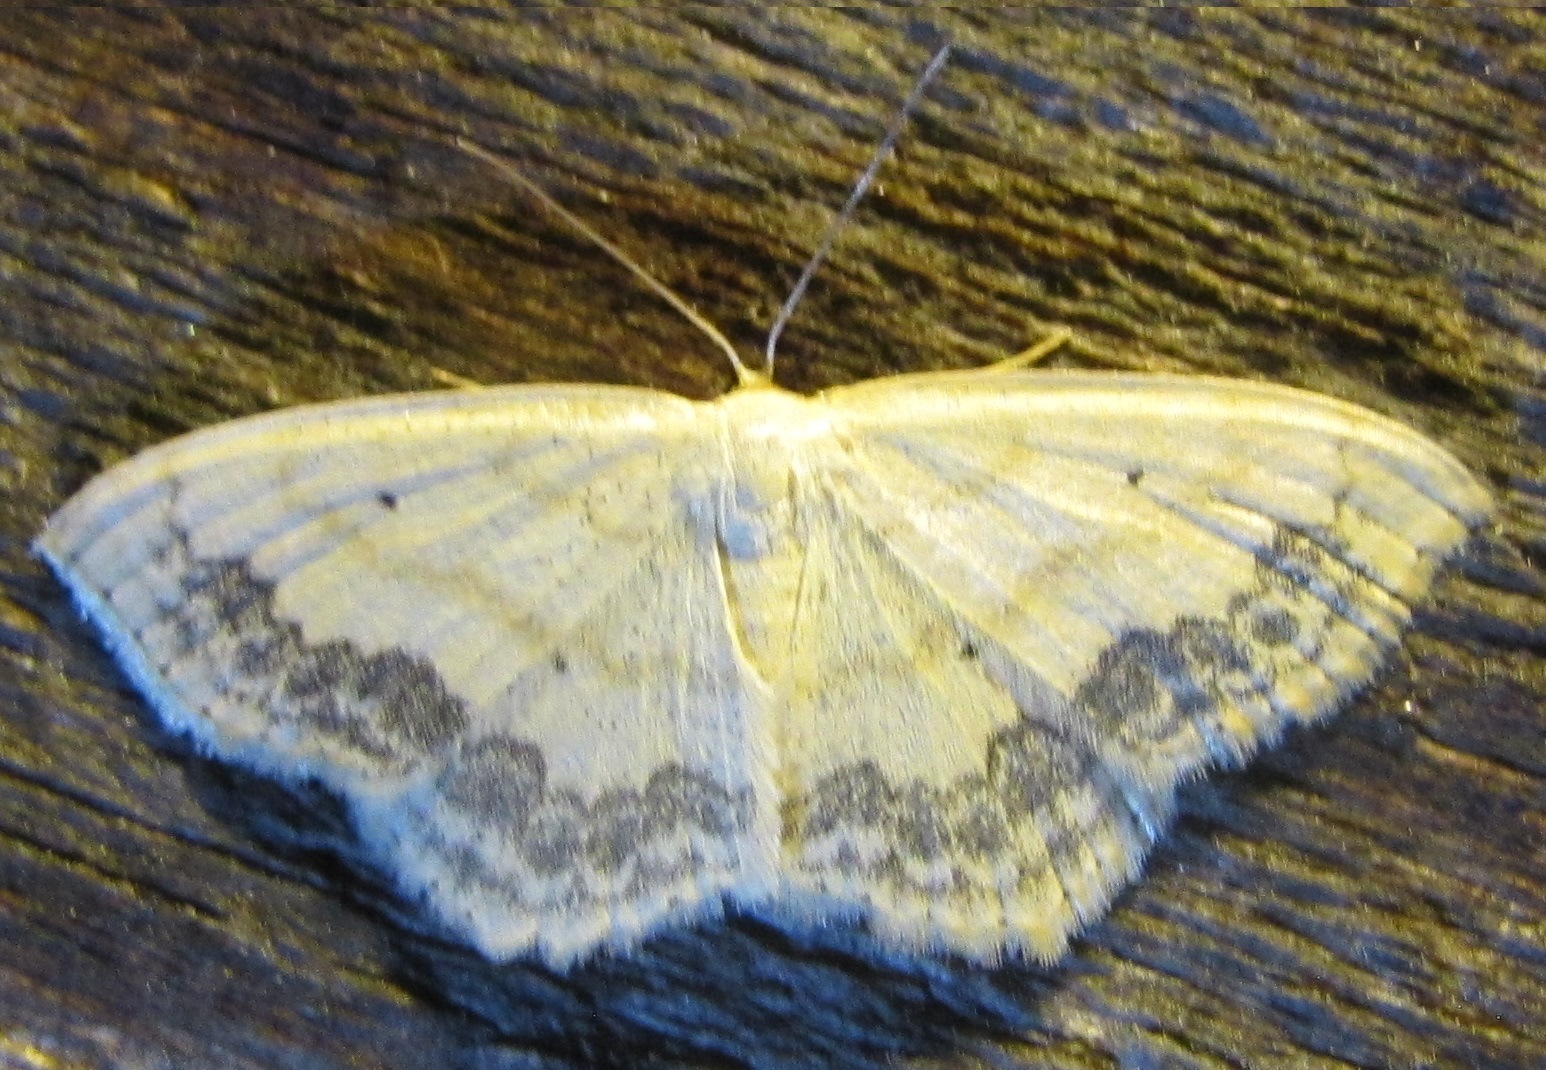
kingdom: Animalia
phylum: Arthropoda
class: Insecta
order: Lepidoptera
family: Geometridae
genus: Scopula
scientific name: Scopula limboundata
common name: Large lace border
